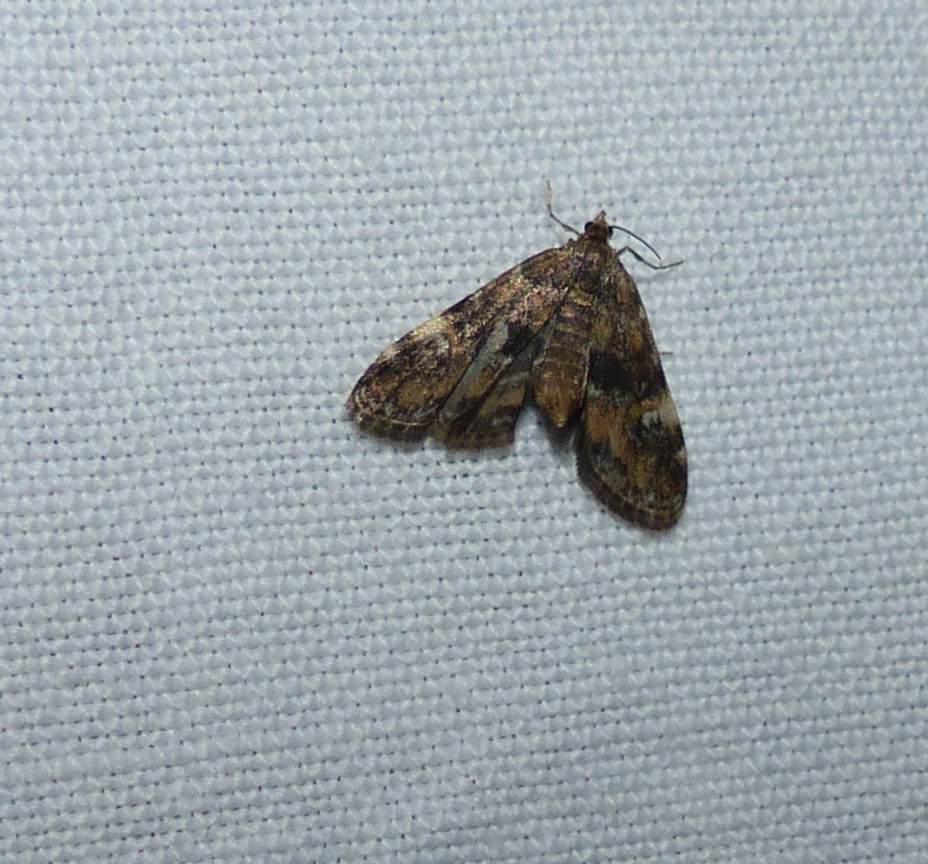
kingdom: Animalia
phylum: Arthropoda
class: Insecta
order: Lepidoptera
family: Crambidae
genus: Elophila
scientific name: Elophila obliteralis
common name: Waterlily leafcutter moth
